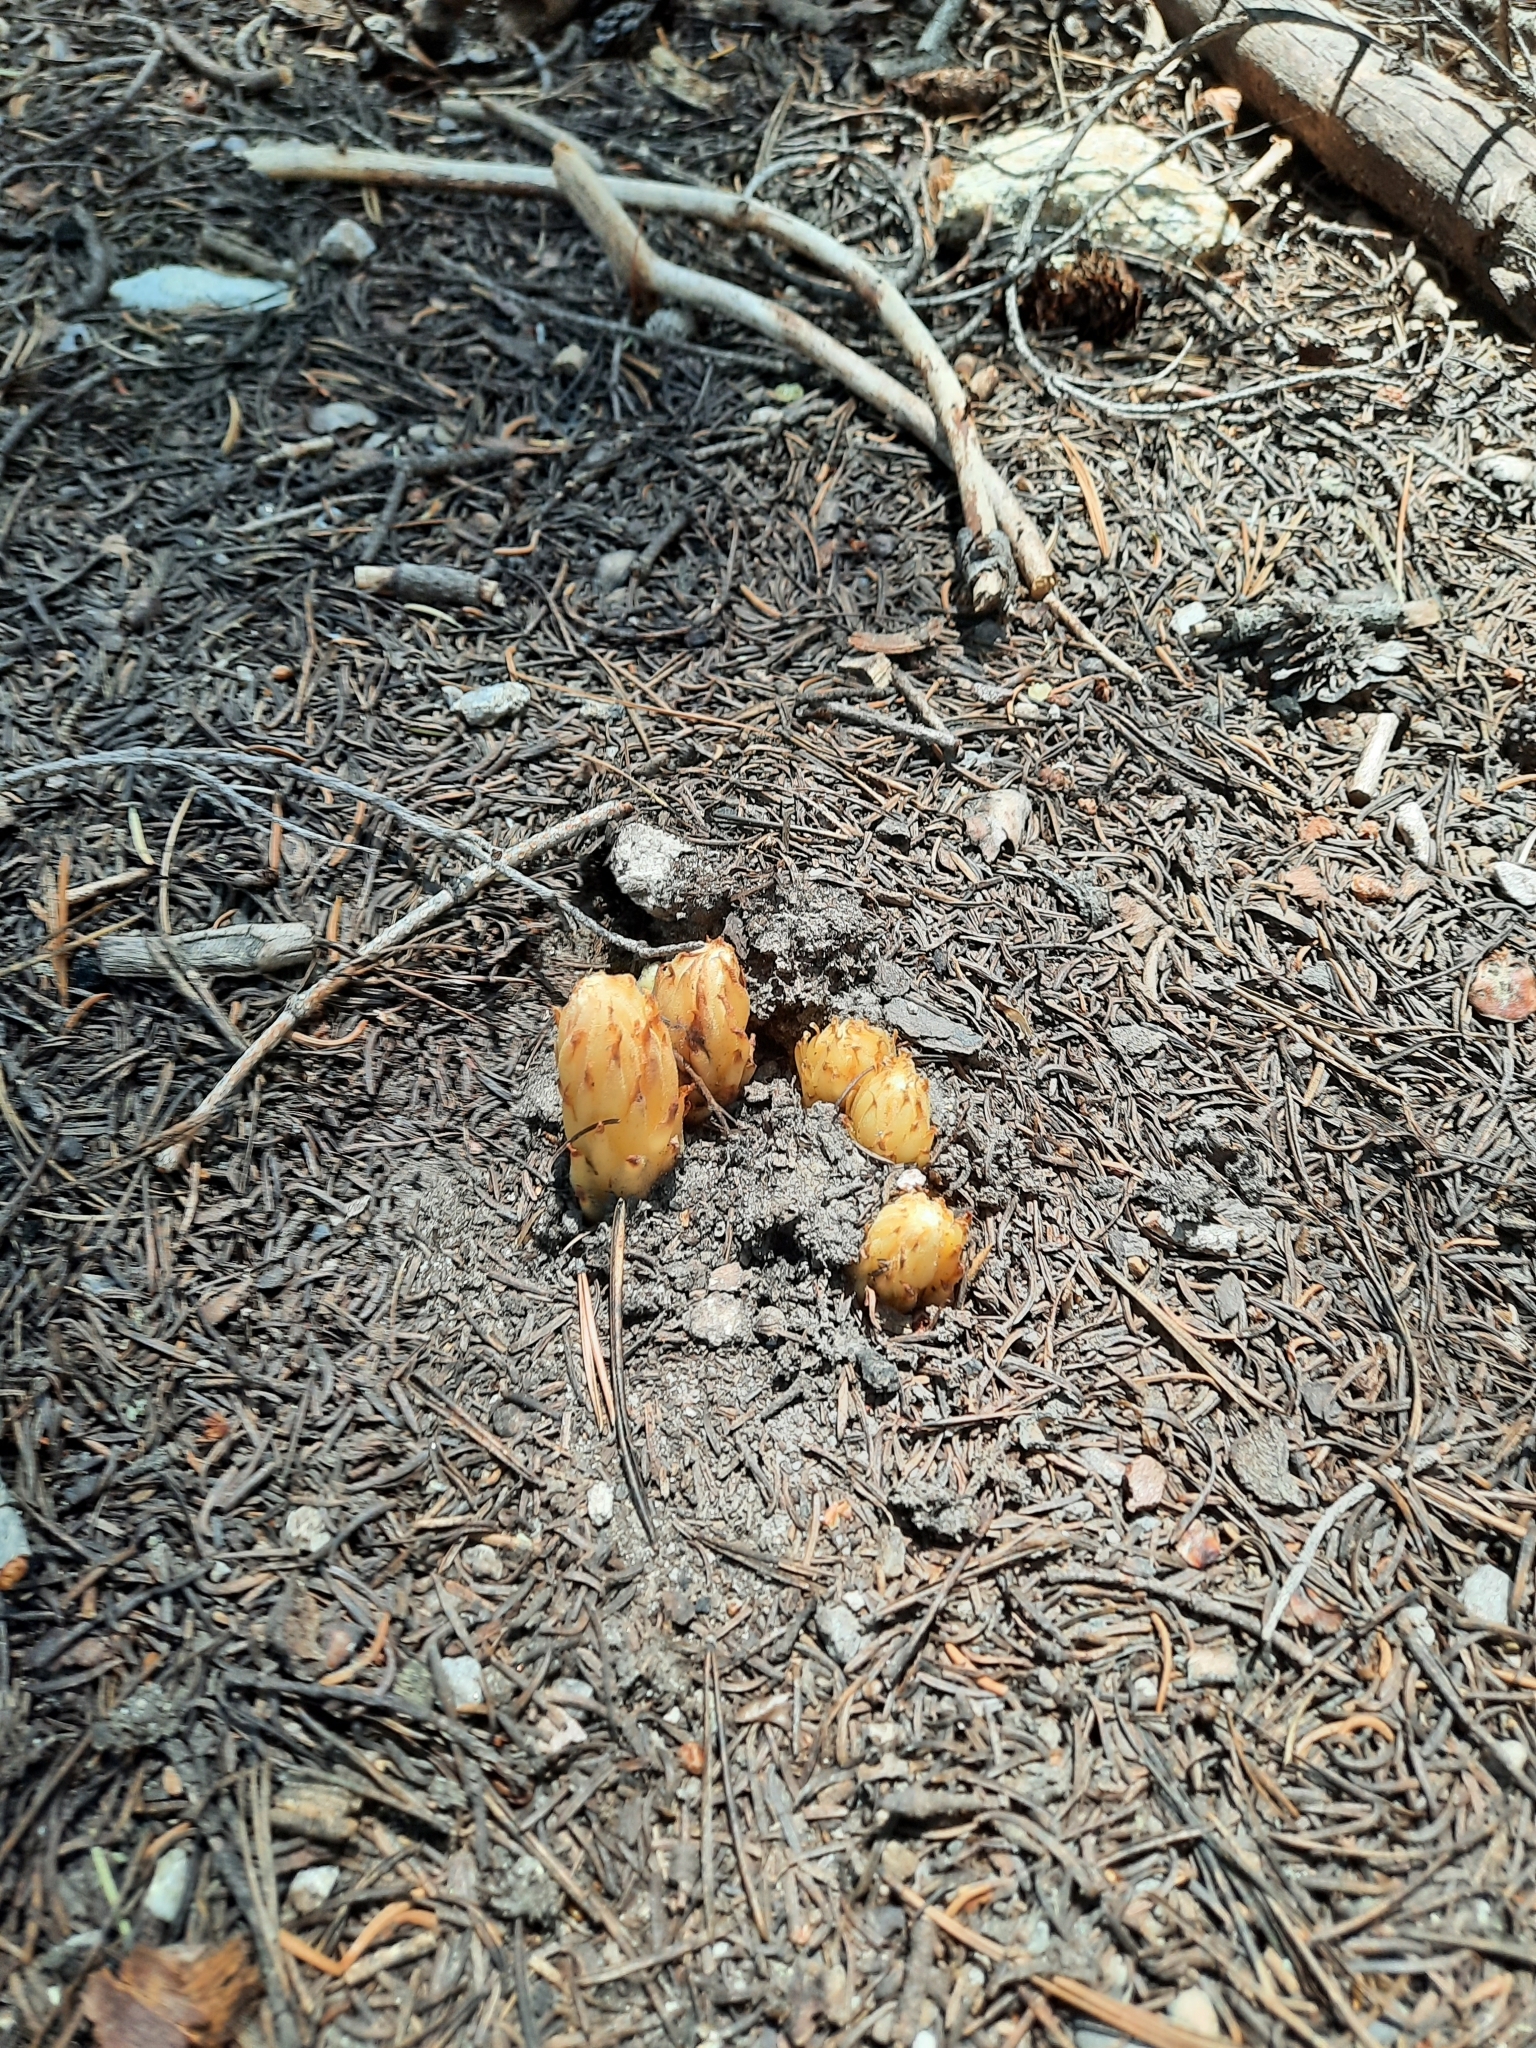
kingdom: Plantae
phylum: Tracheophyta
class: Magnoliopsida
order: Ericales
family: Ericaceae
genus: Pterospora
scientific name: Pterospora andromedea
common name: Giant bird's-nest
